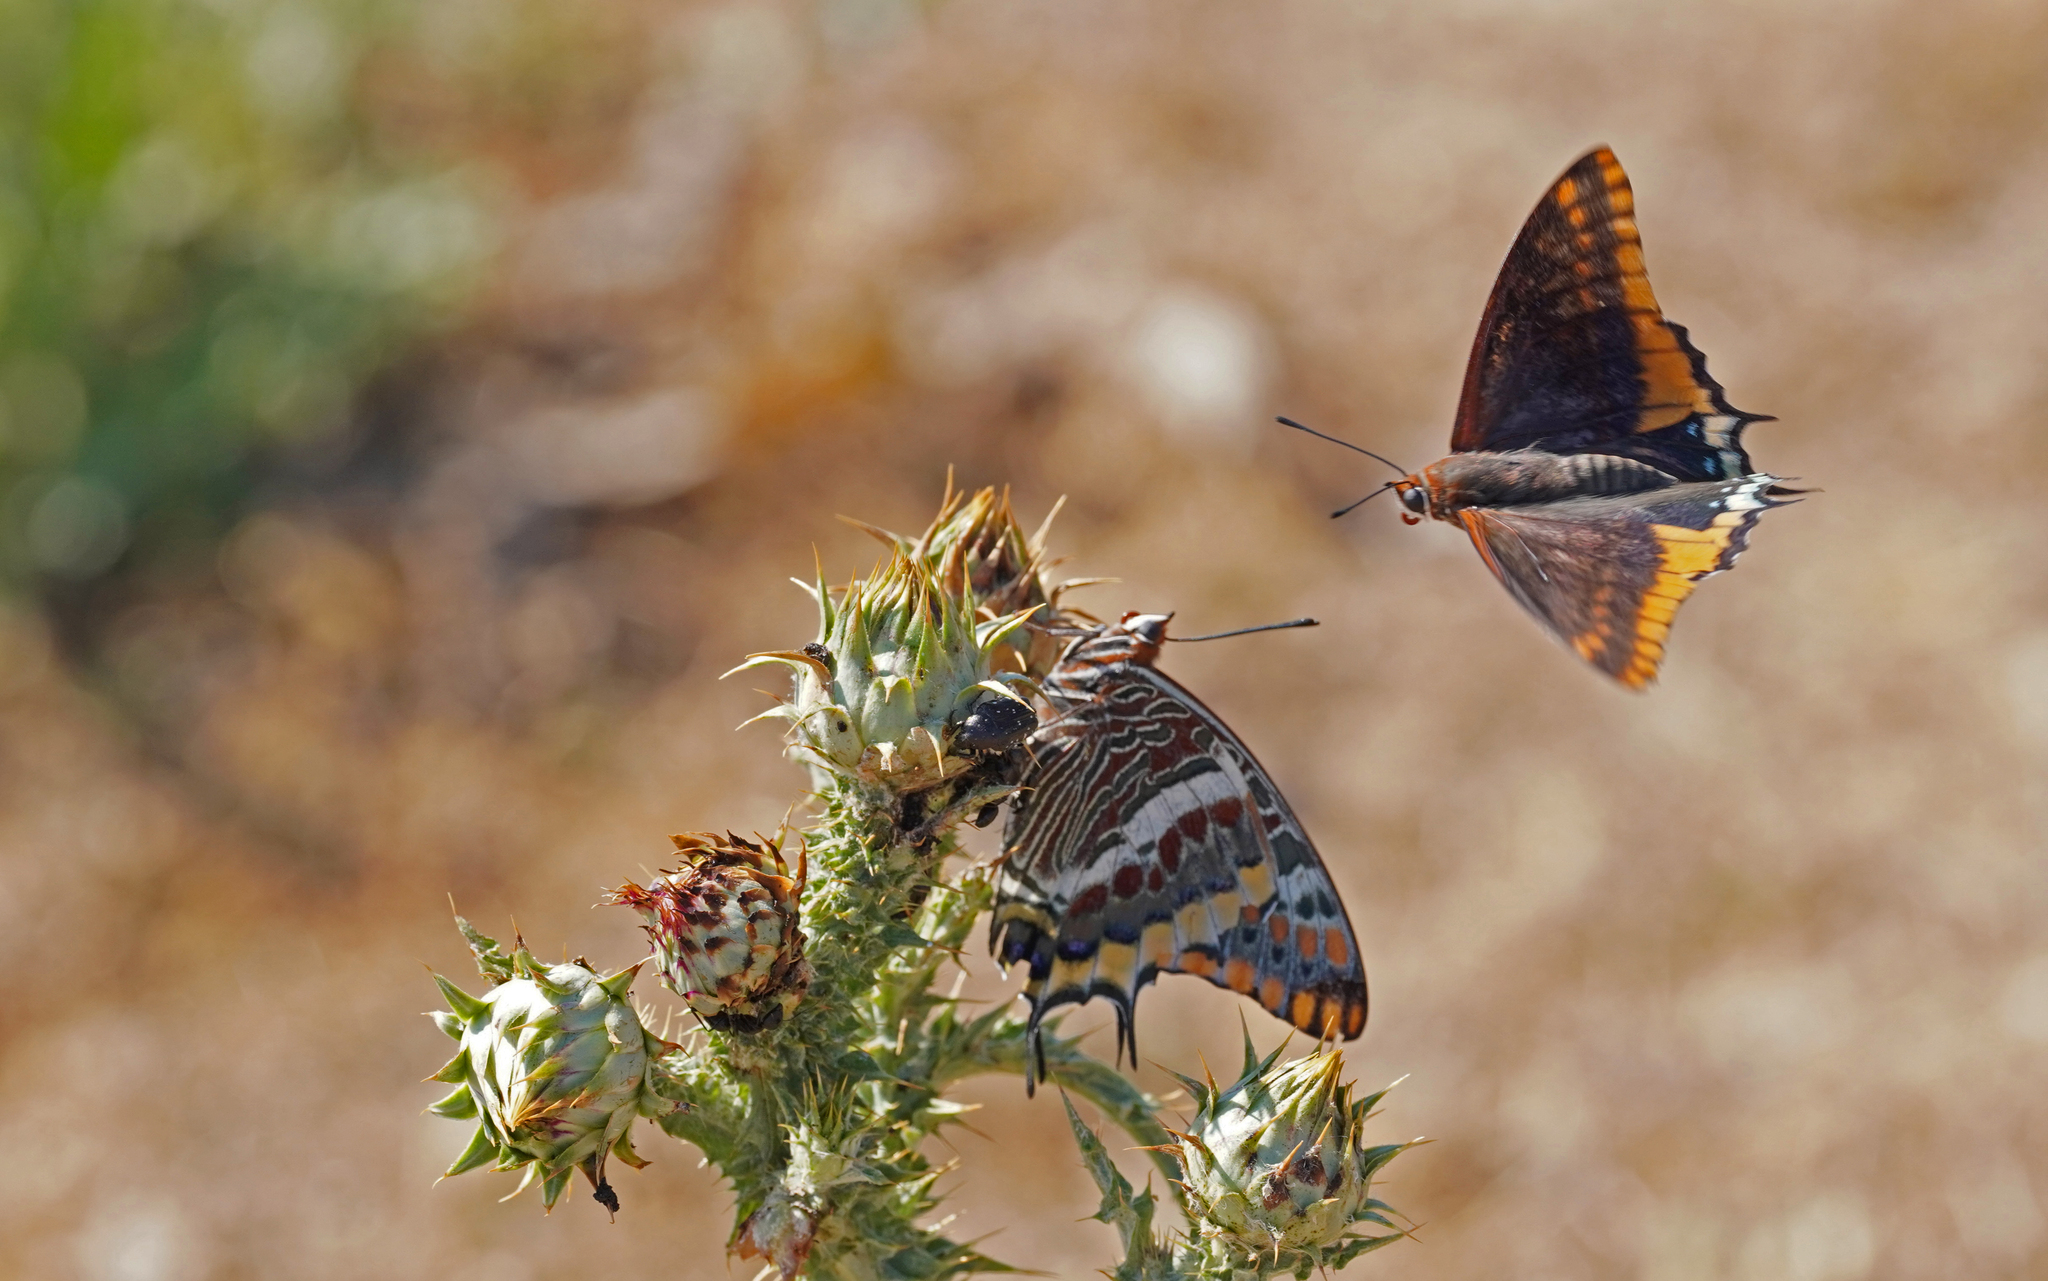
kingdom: Animalia
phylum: Arthropoda
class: Insecta
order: Lepidoptera
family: Nymphalidae
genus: Charaxes
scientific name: Charaxes jasius
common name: Two tailed pasha
